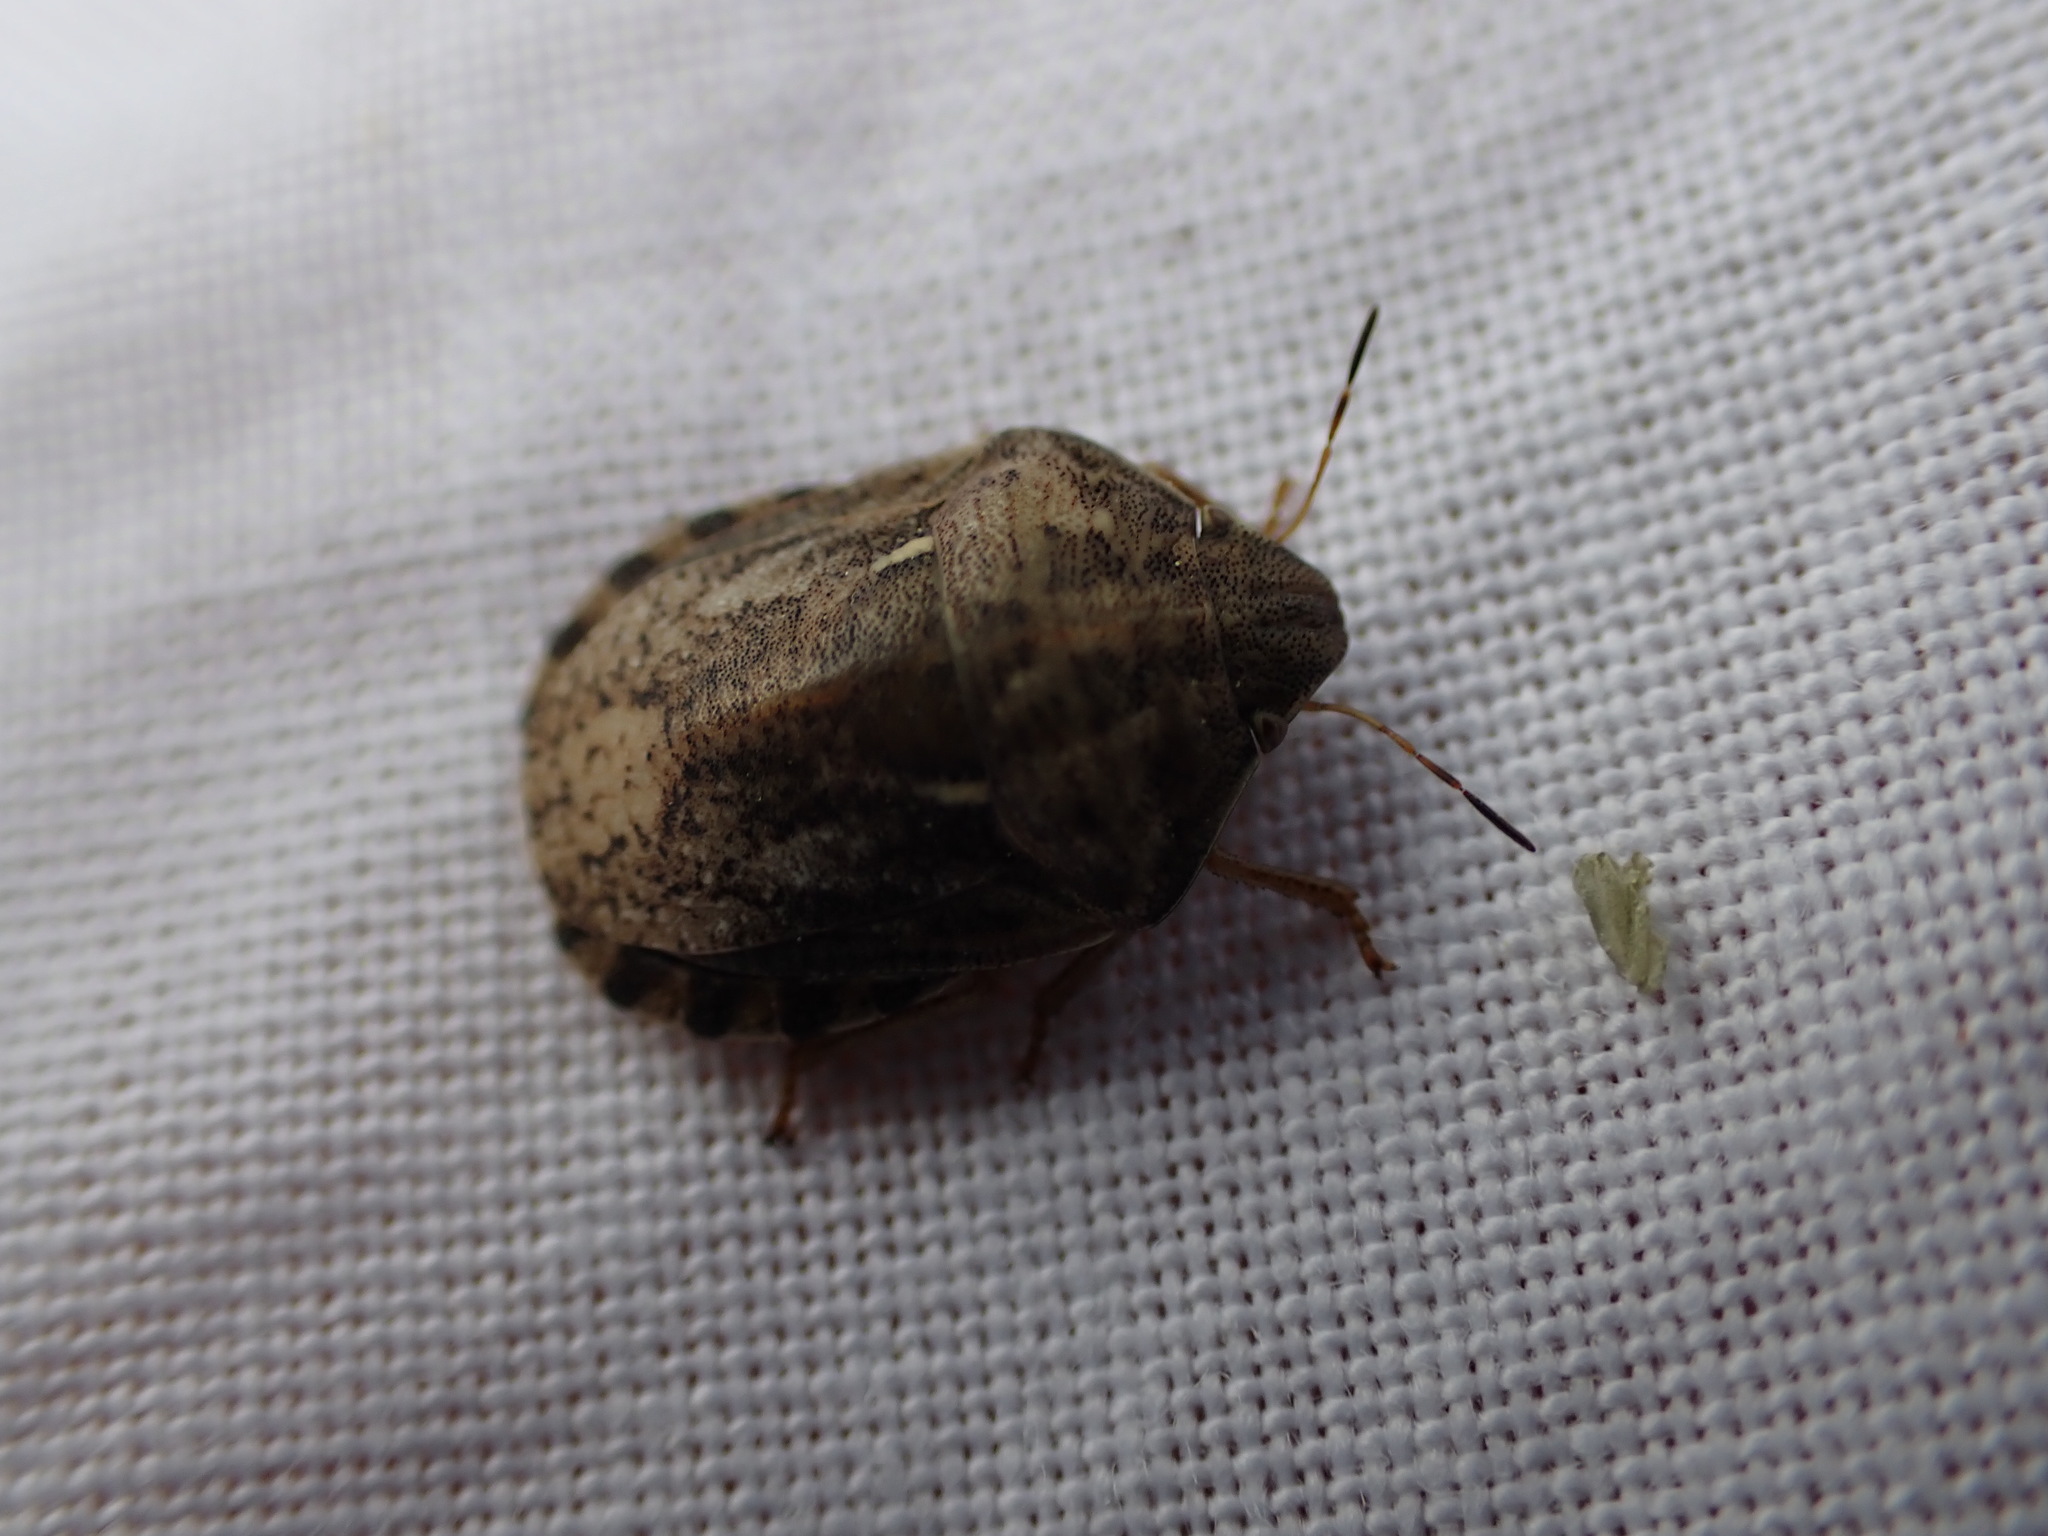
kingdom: Animalia
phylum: Arthropoda
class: Insecta
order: Hemiptera
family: Scutelleridae
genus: Eurygaster
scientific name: Eurygaster maura
